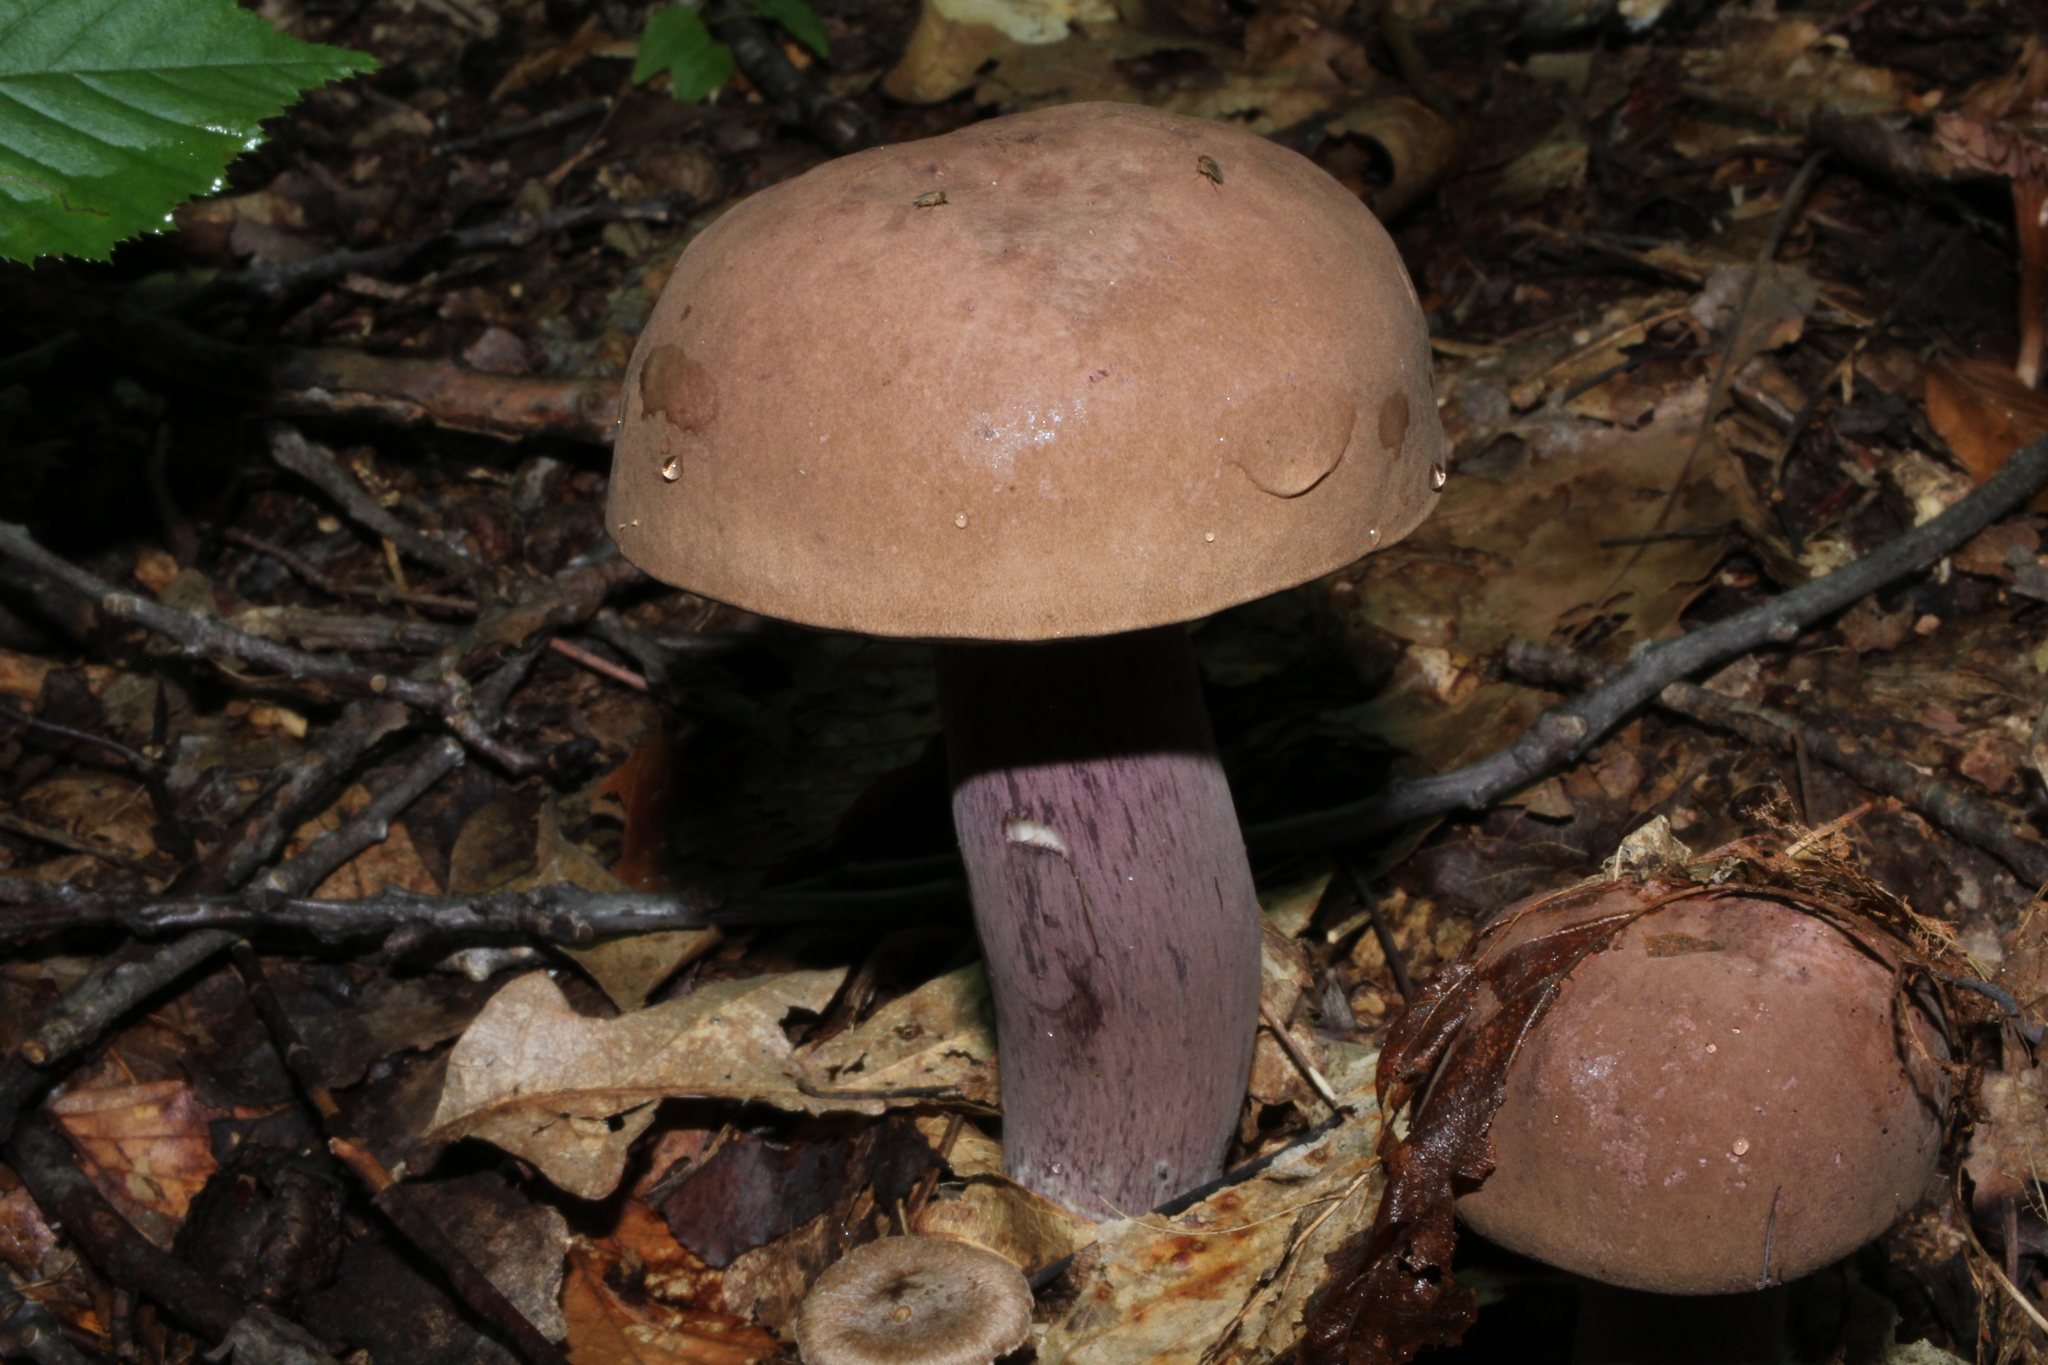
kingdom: Fungi
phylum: Basidiomycota
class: Agaricomycetes
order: Boletales
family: Boletaceae
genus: Tylopilus
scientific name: Tylopilus plumbeoviolaceus
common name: Violet gray bolete
